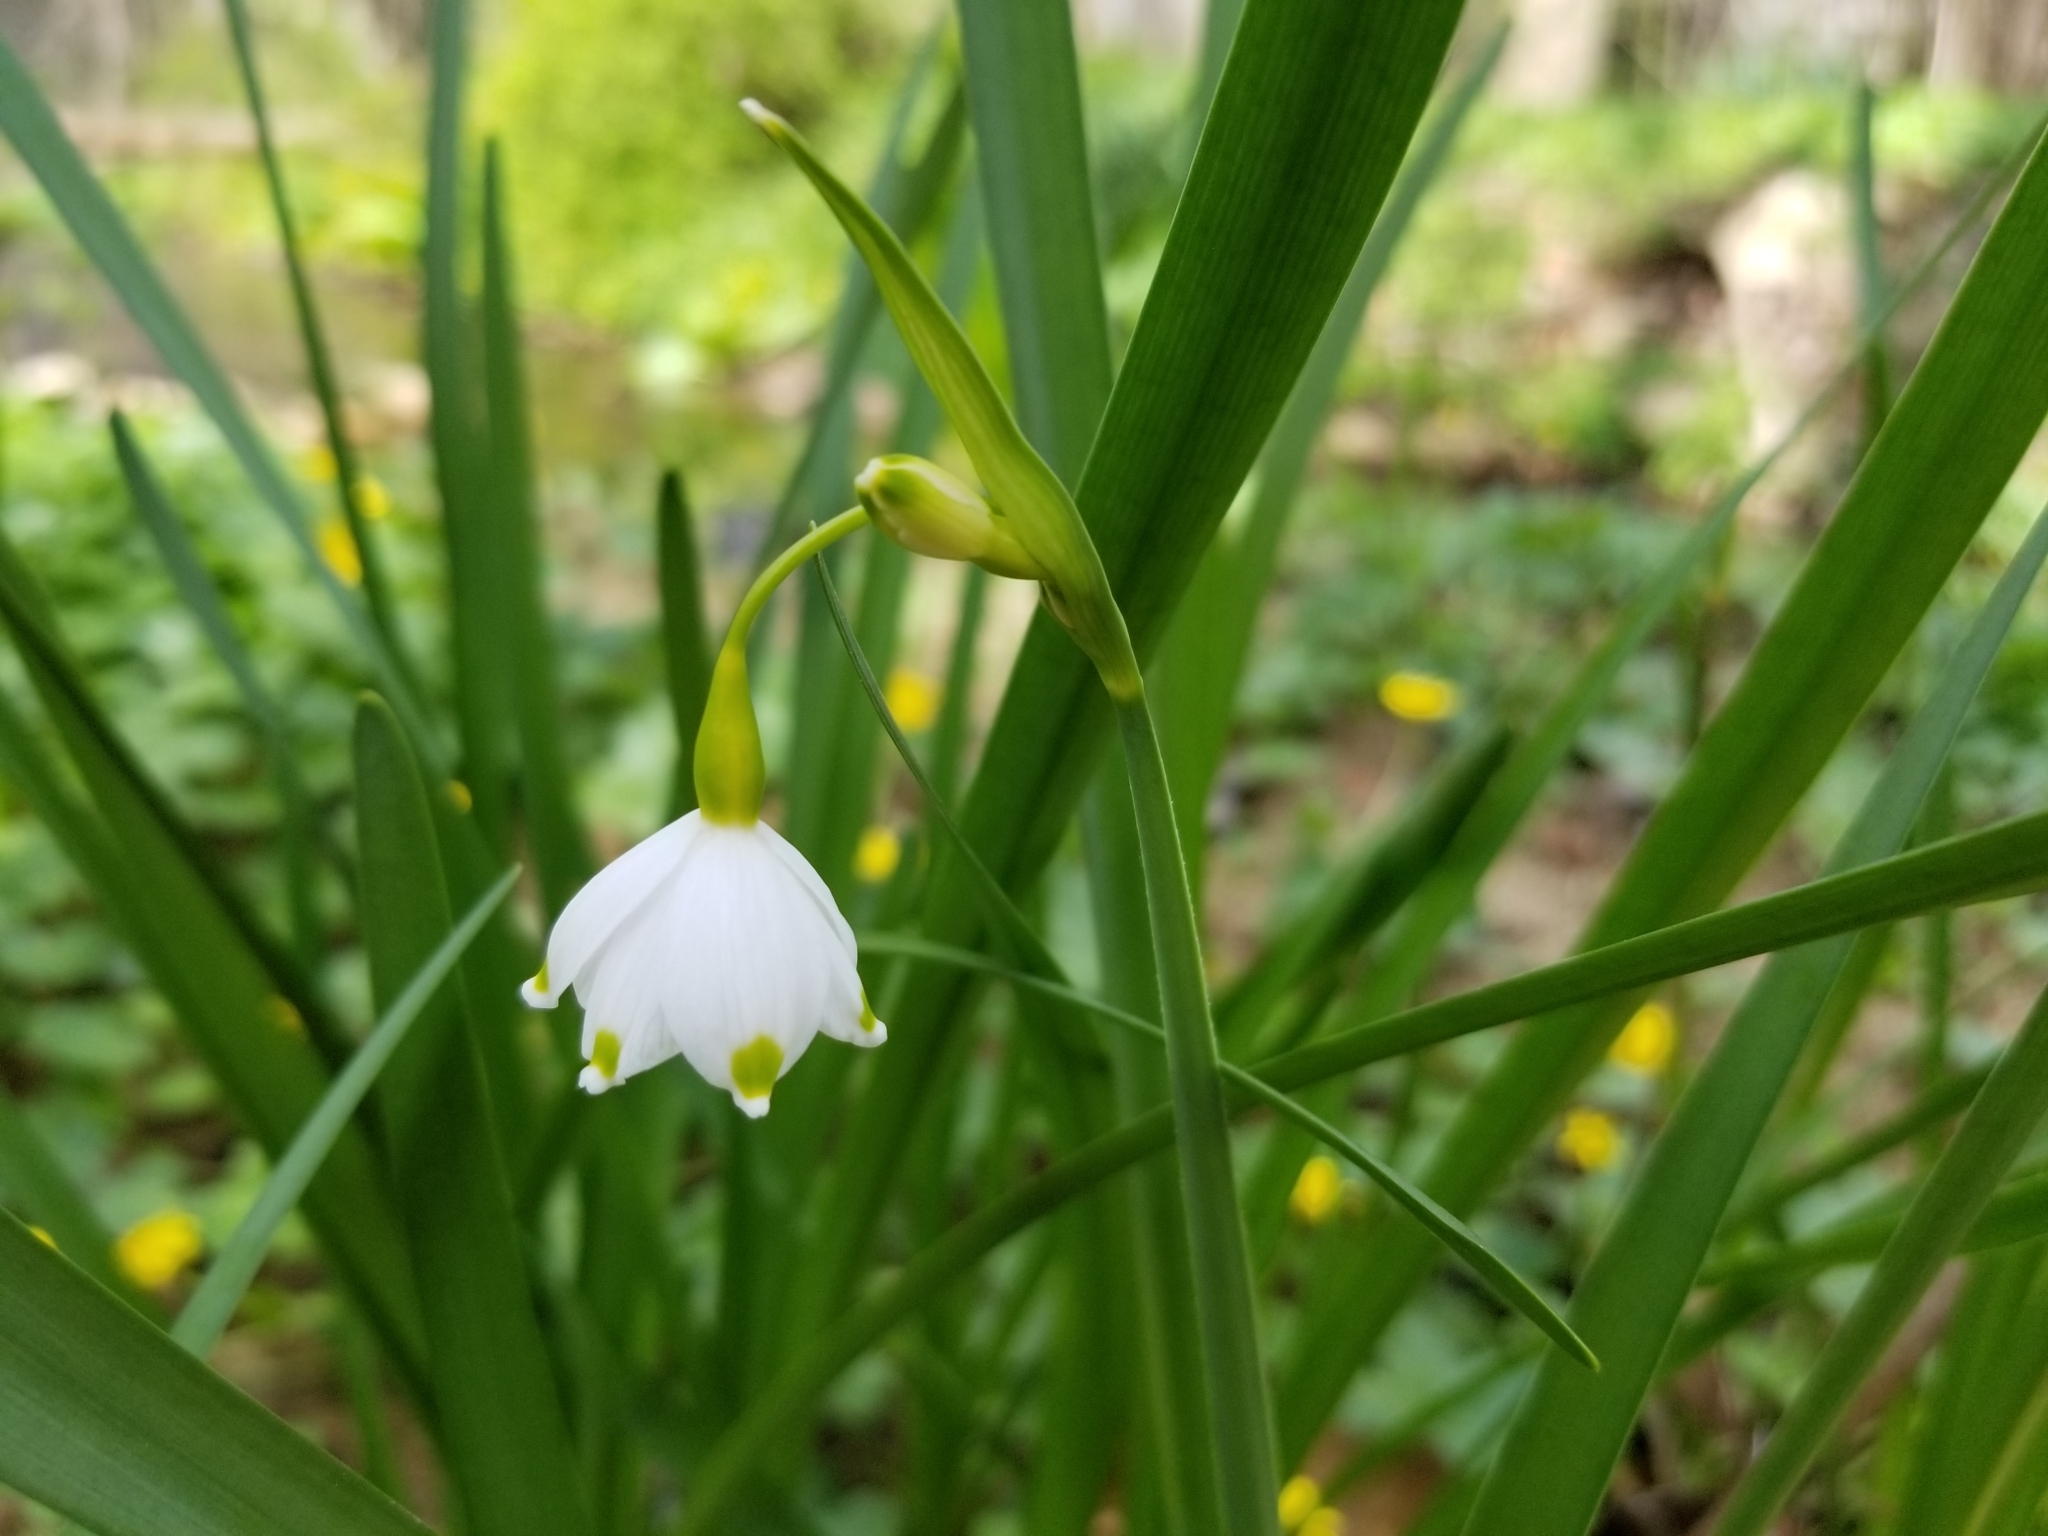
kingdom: Plantae
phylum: Tracheophyta
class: Liliopsida
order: Asparagales
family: Amaryllidaceae
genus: Leucojum
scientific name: Leucojum aestivum
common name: Summer snowflake
